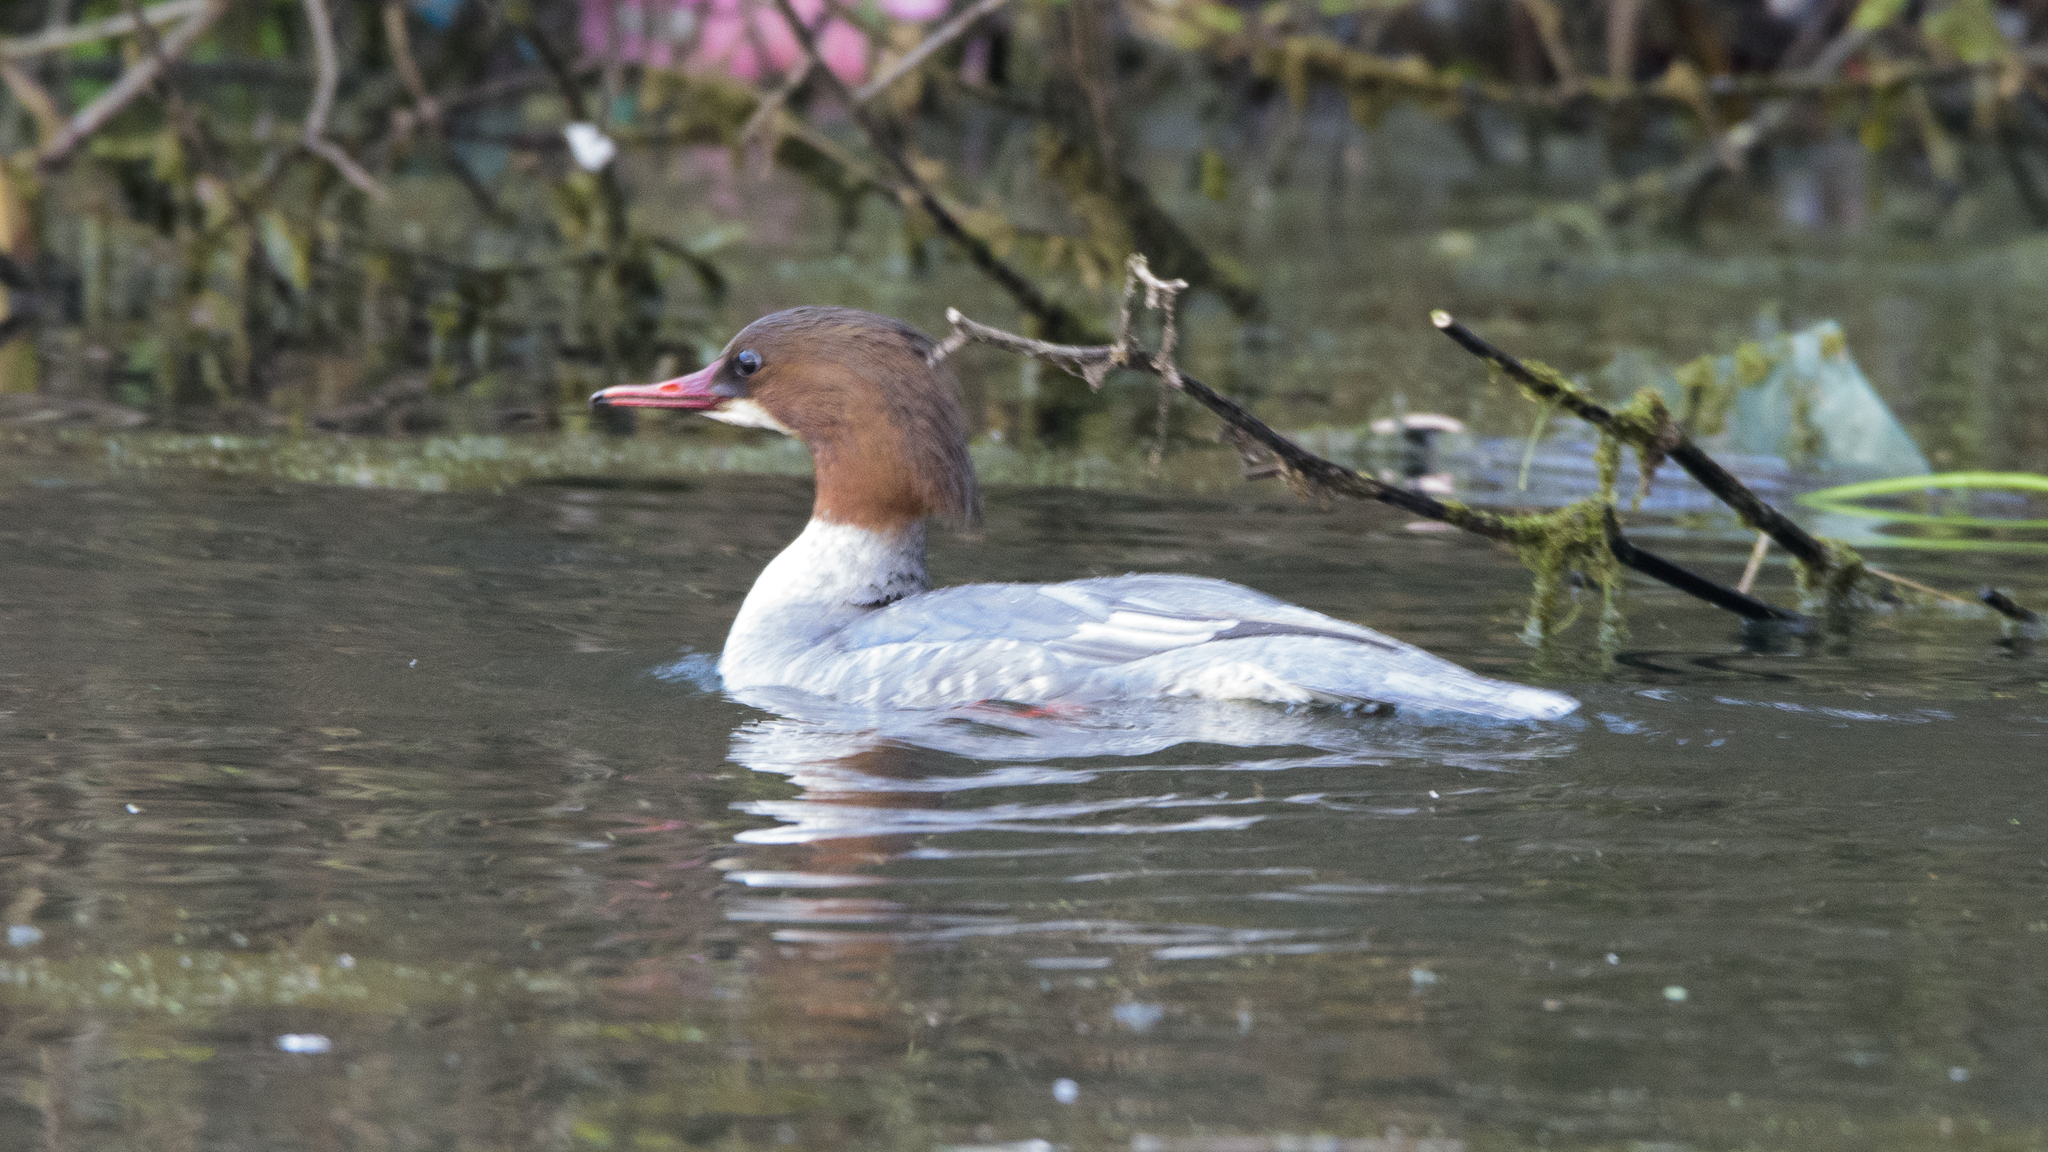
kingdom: Animalia
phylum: Chordata
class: Aves
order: Anseriformes
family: Anatidae
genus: Mergus
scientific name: Mergus merganser
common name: Common merganser
